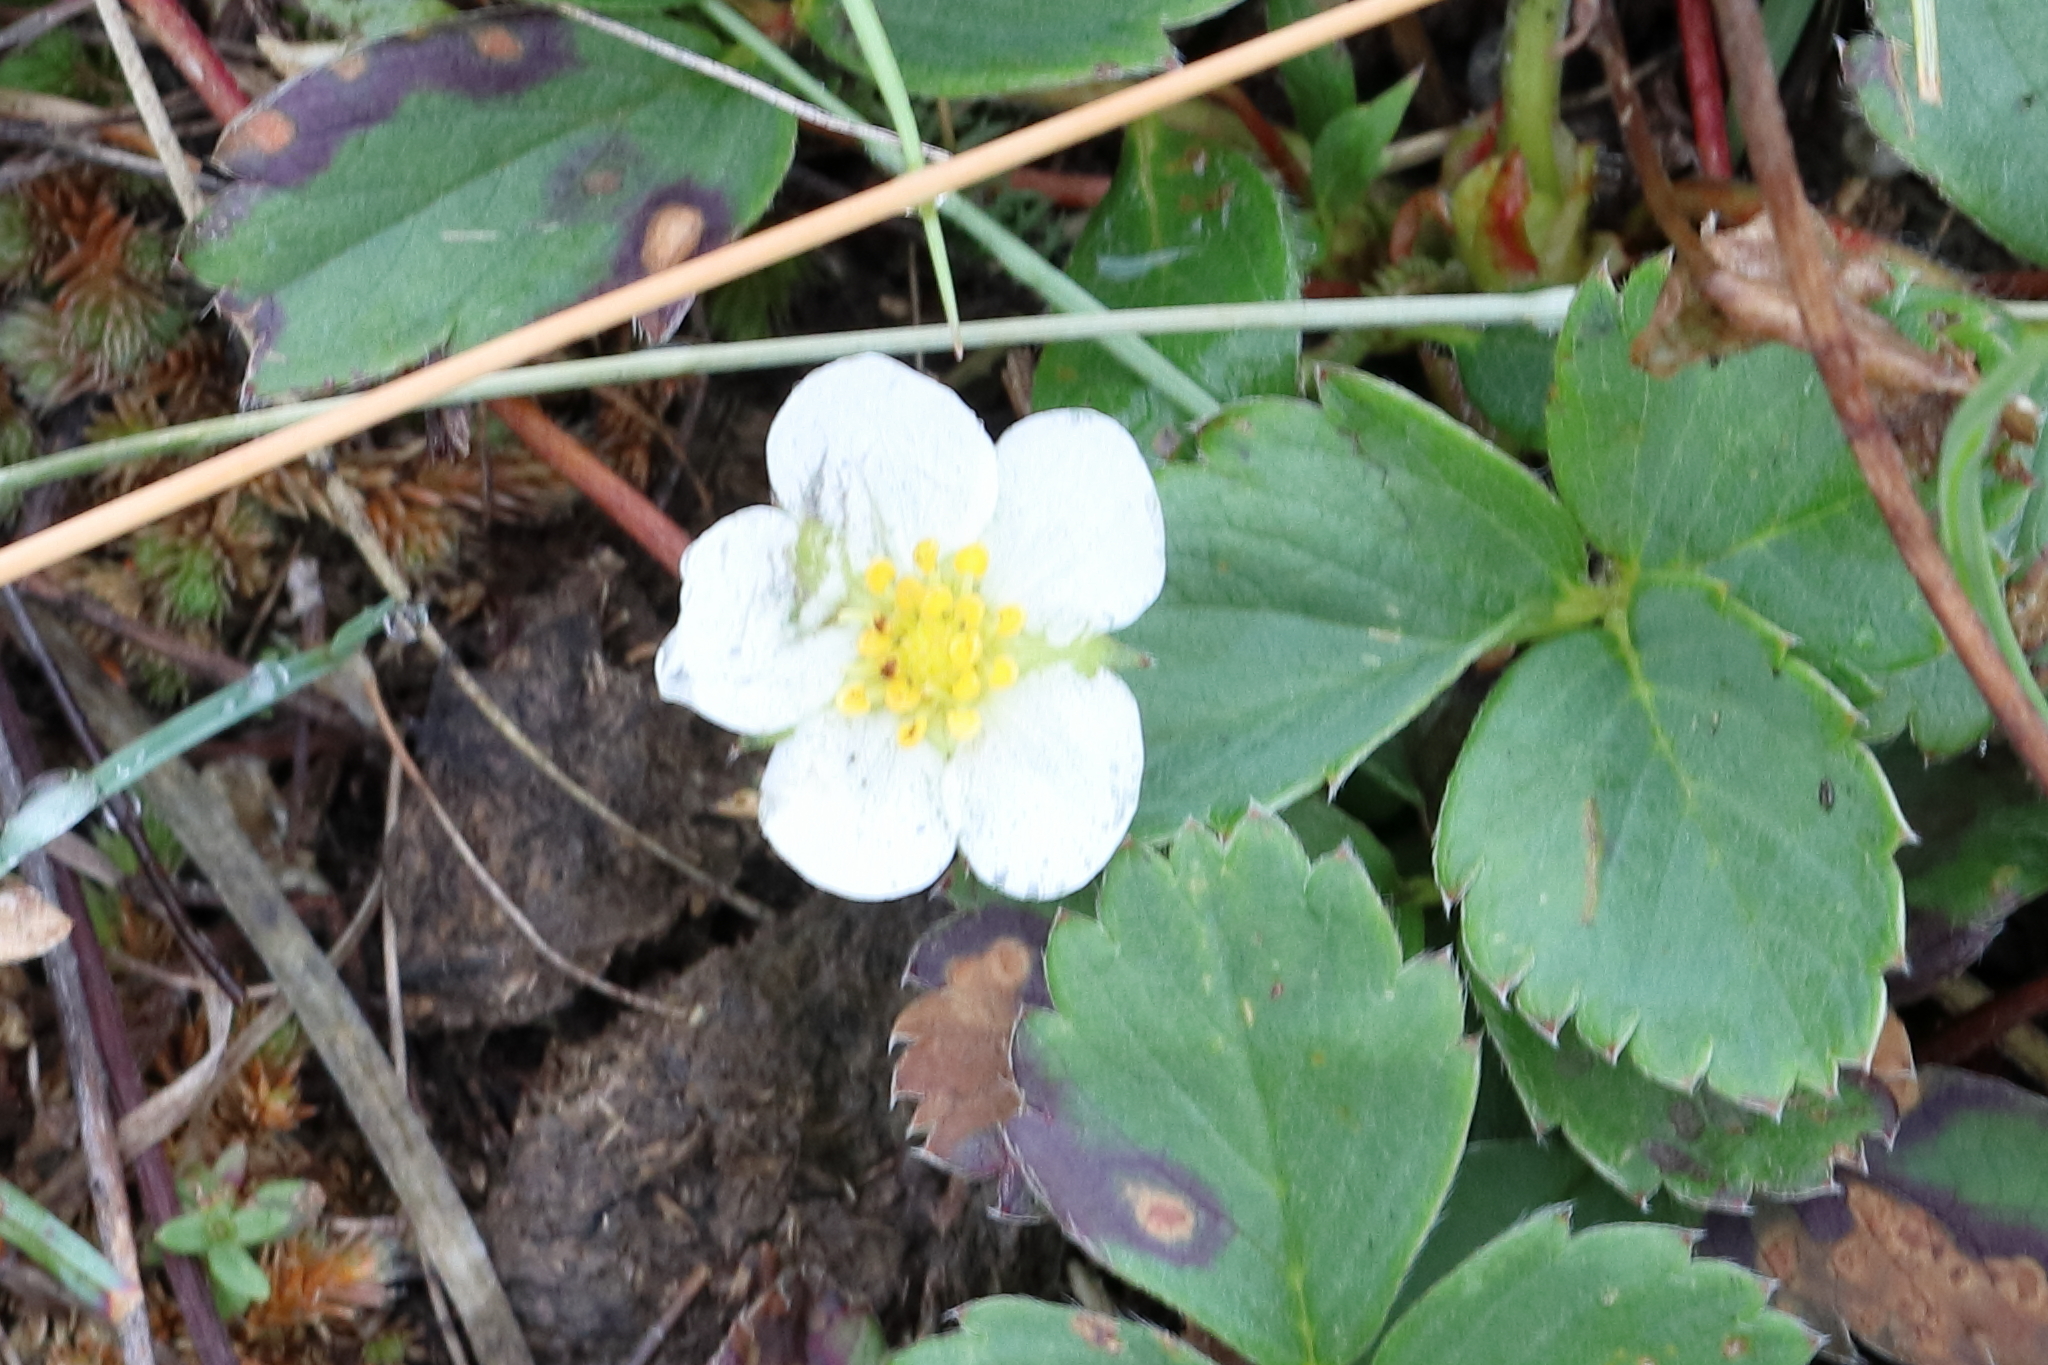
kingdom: Plantae
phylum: Tracheophyta
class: Magnoliopsida
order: Rosales
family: Rosaceae
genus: Fragaria
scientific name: Fragaria virginiana
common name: Thickleaved wild strawberry
